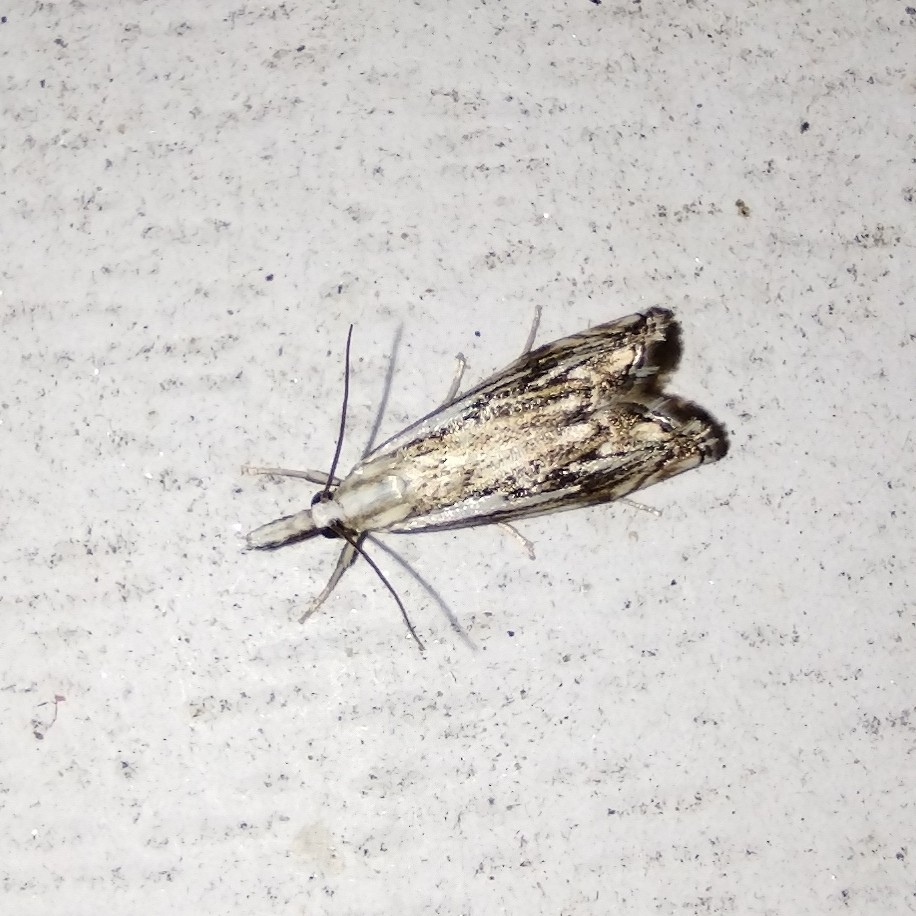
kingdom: Animalia
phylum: Arthropoda
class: Insecta
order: Lepidoptera
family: Crambidae
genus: Catoptria
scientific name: Catoptria falsella
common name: Chequered grass-veneer
